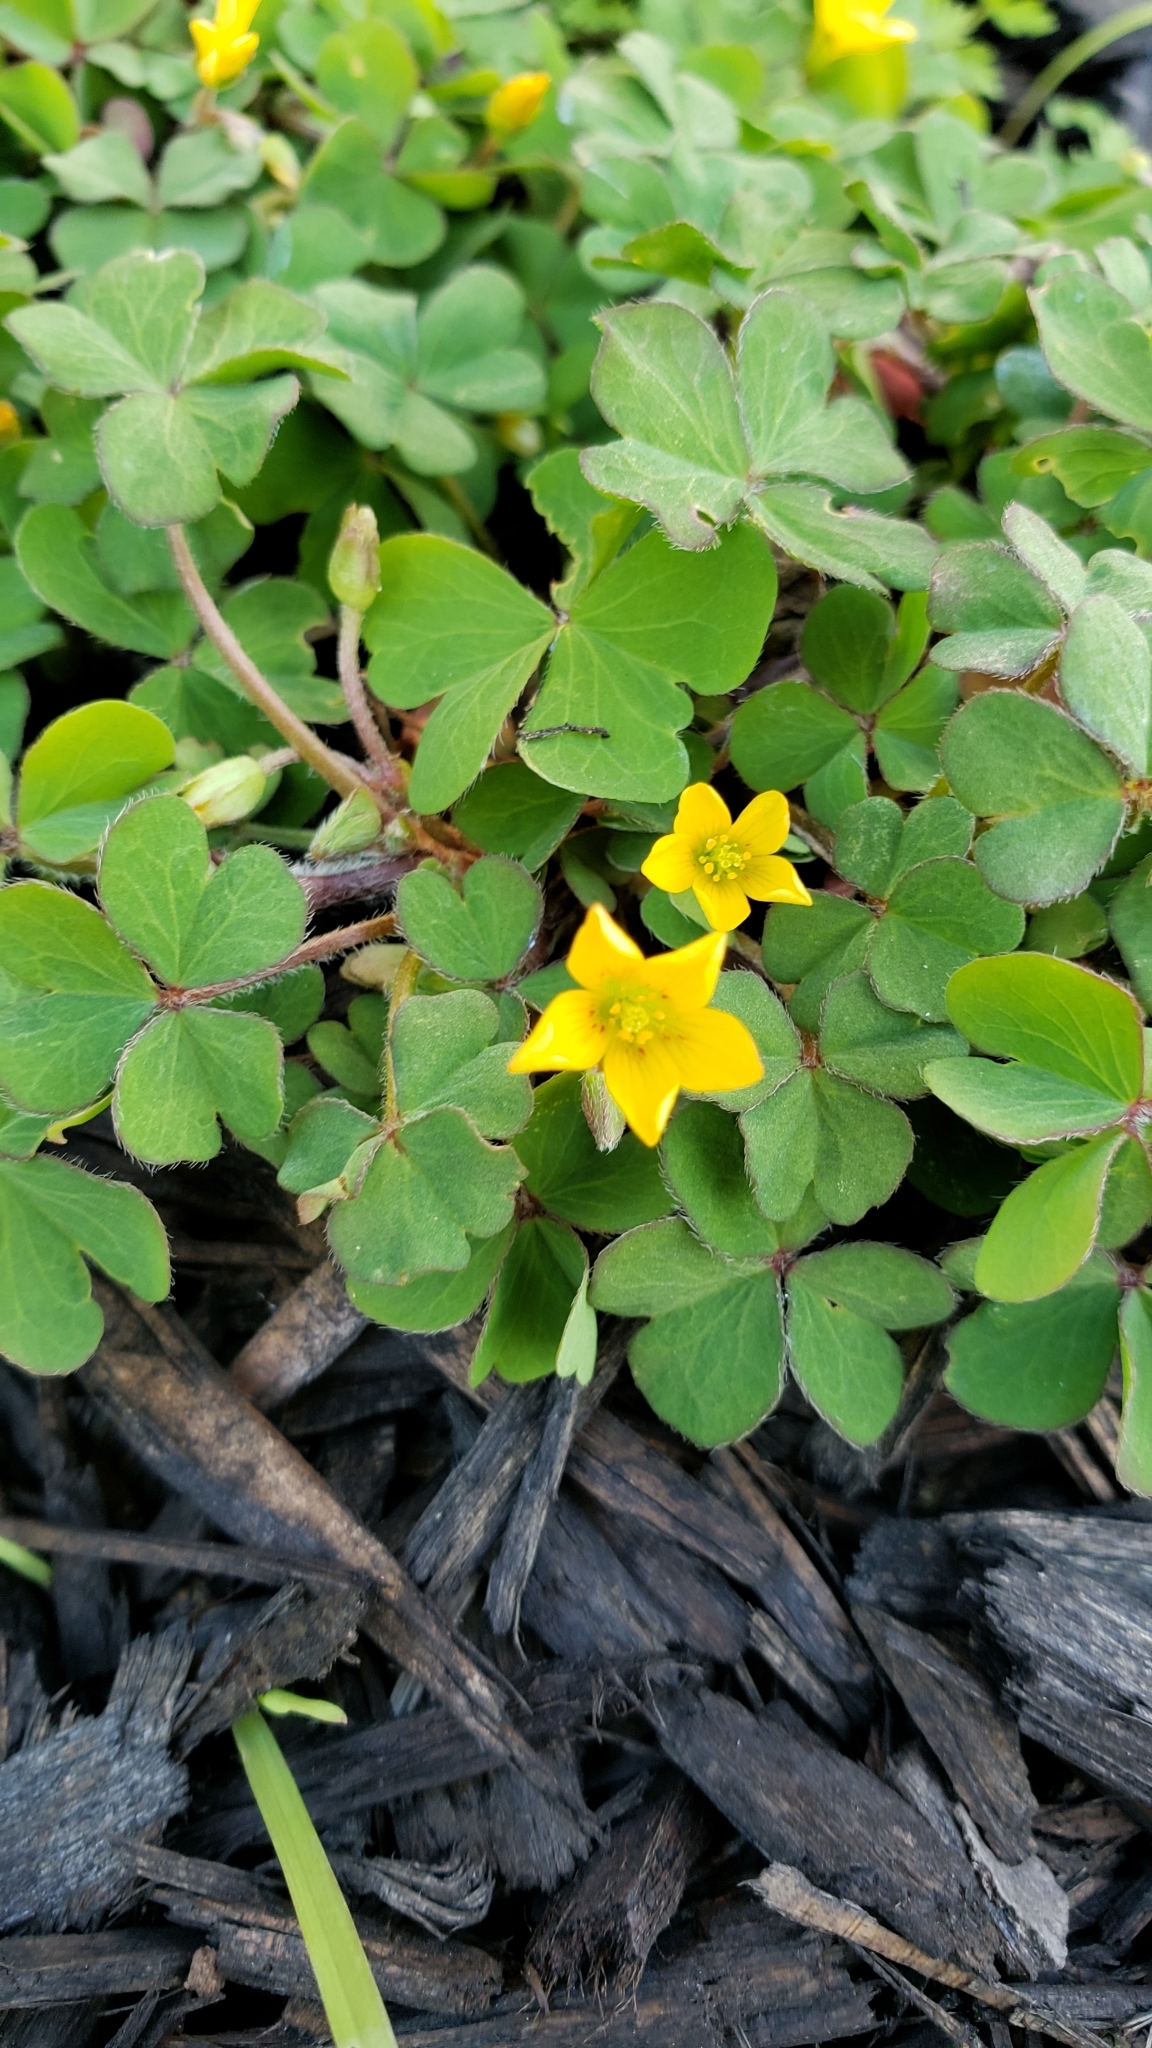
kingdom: Plantae
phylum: Tracheophyta
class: Magnoliopsida
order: Oxalidales
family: Oxalidaceae
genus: Oxalis
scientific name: Oxalis corniculata
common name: Procumbent yellow-sorrel
